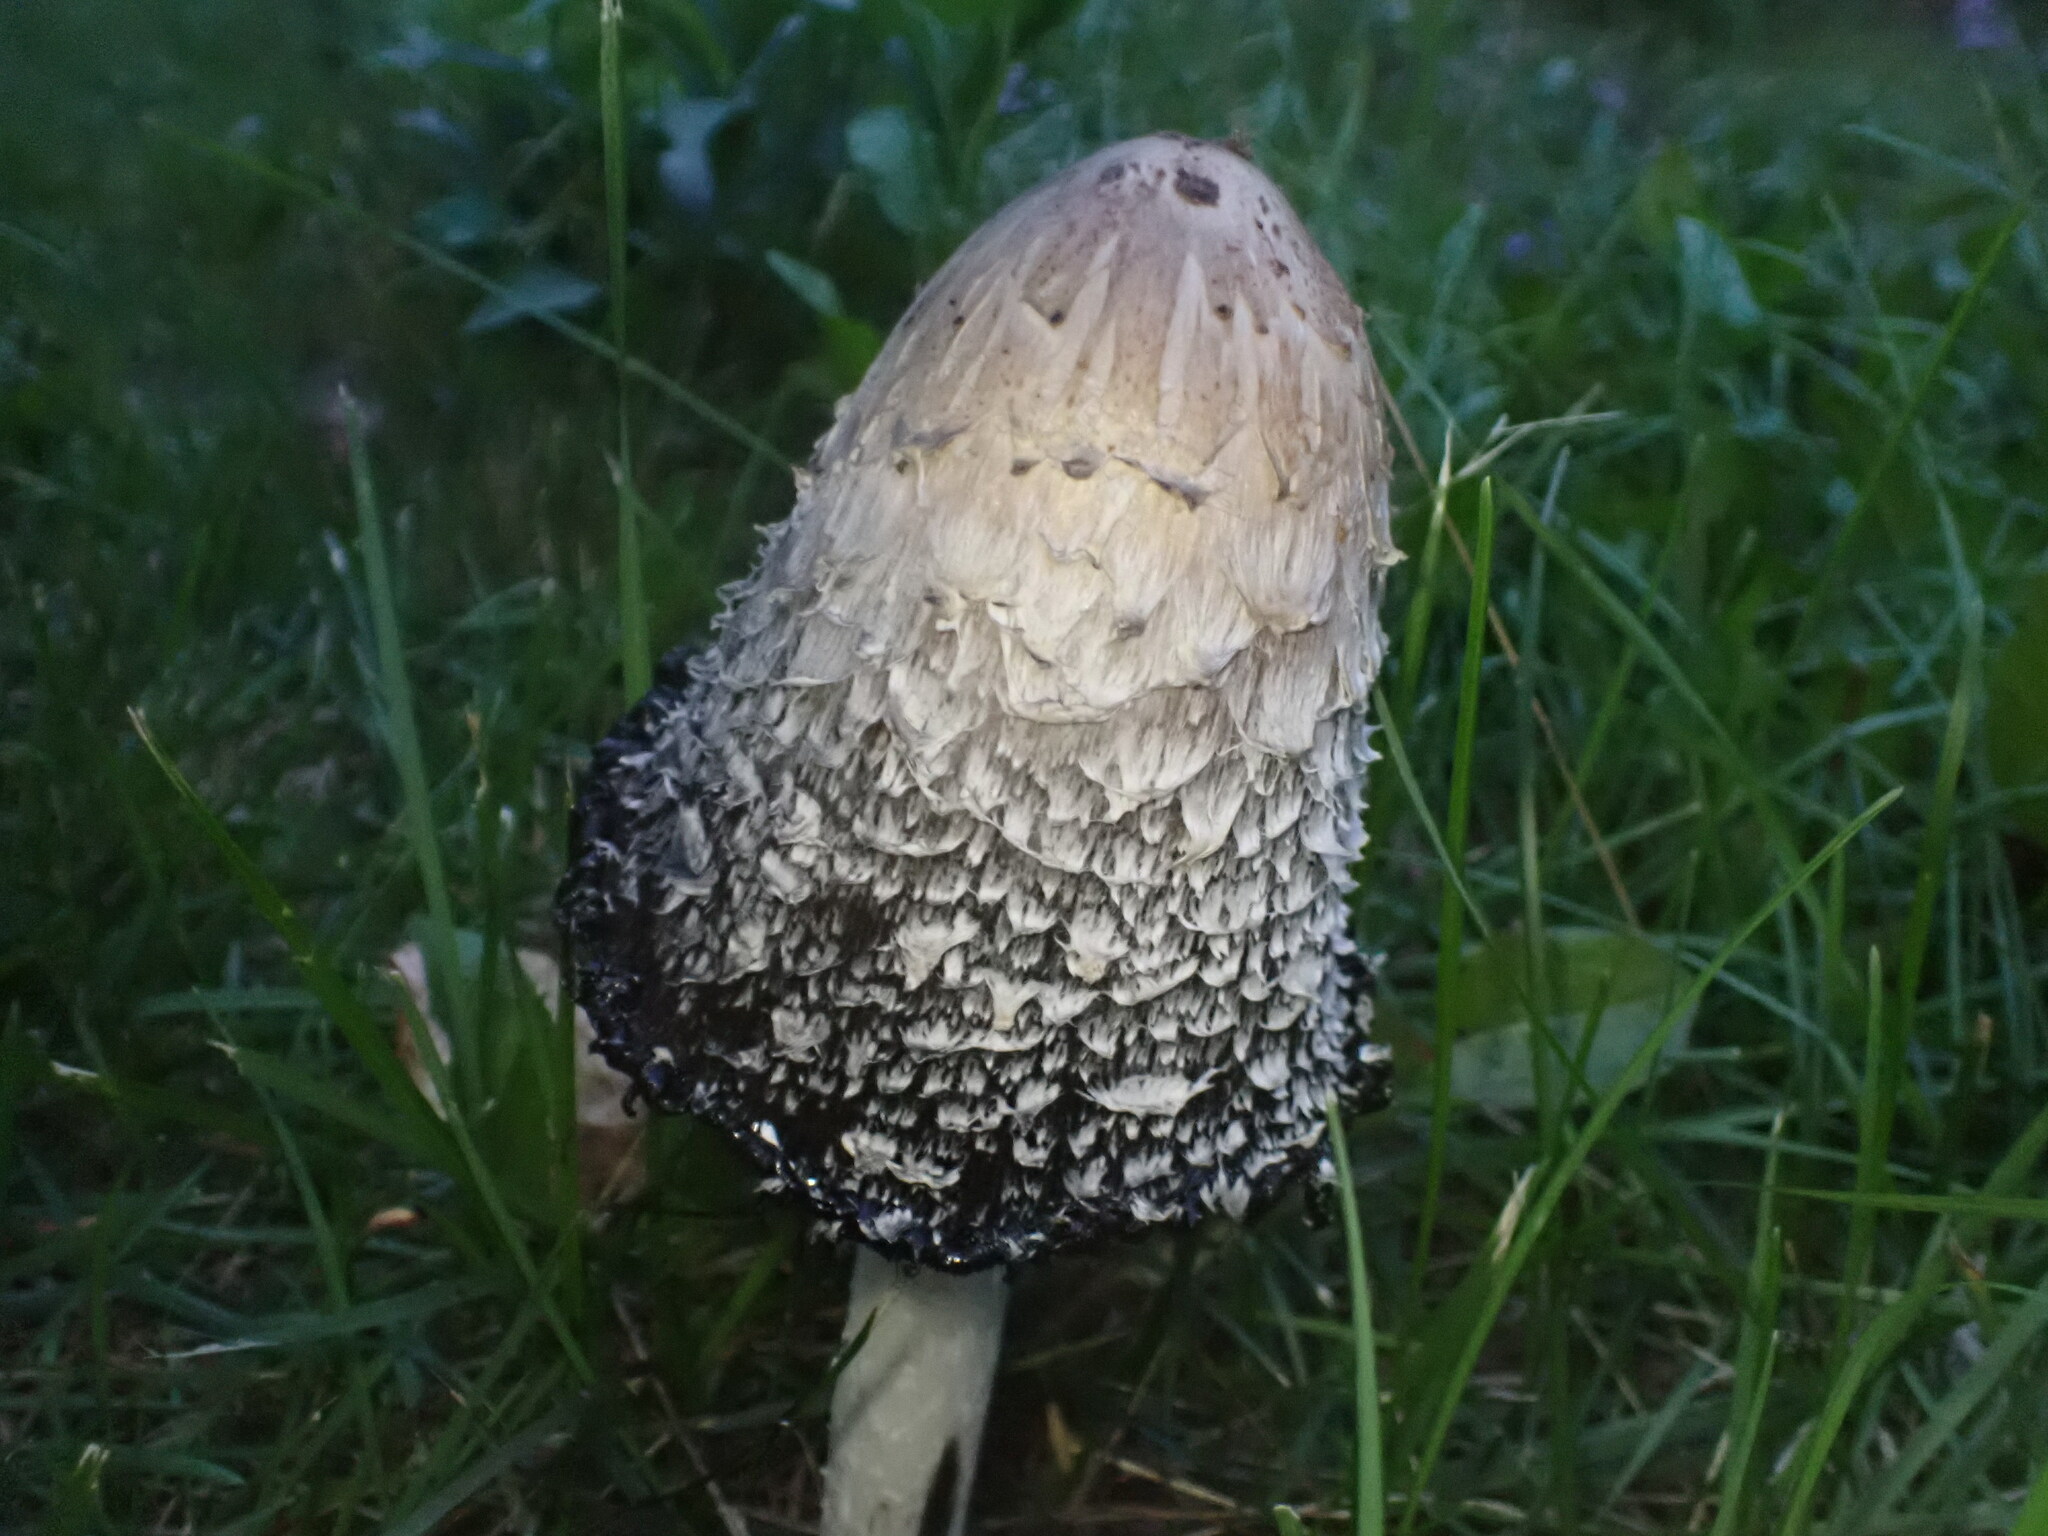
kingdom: Fungi
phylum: Basidiomycota
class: Agaricomycetes
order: Agaricales
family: Agaricaceae
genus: Coprinus
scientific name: Coprinus comatus
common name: Lawyer's wig
